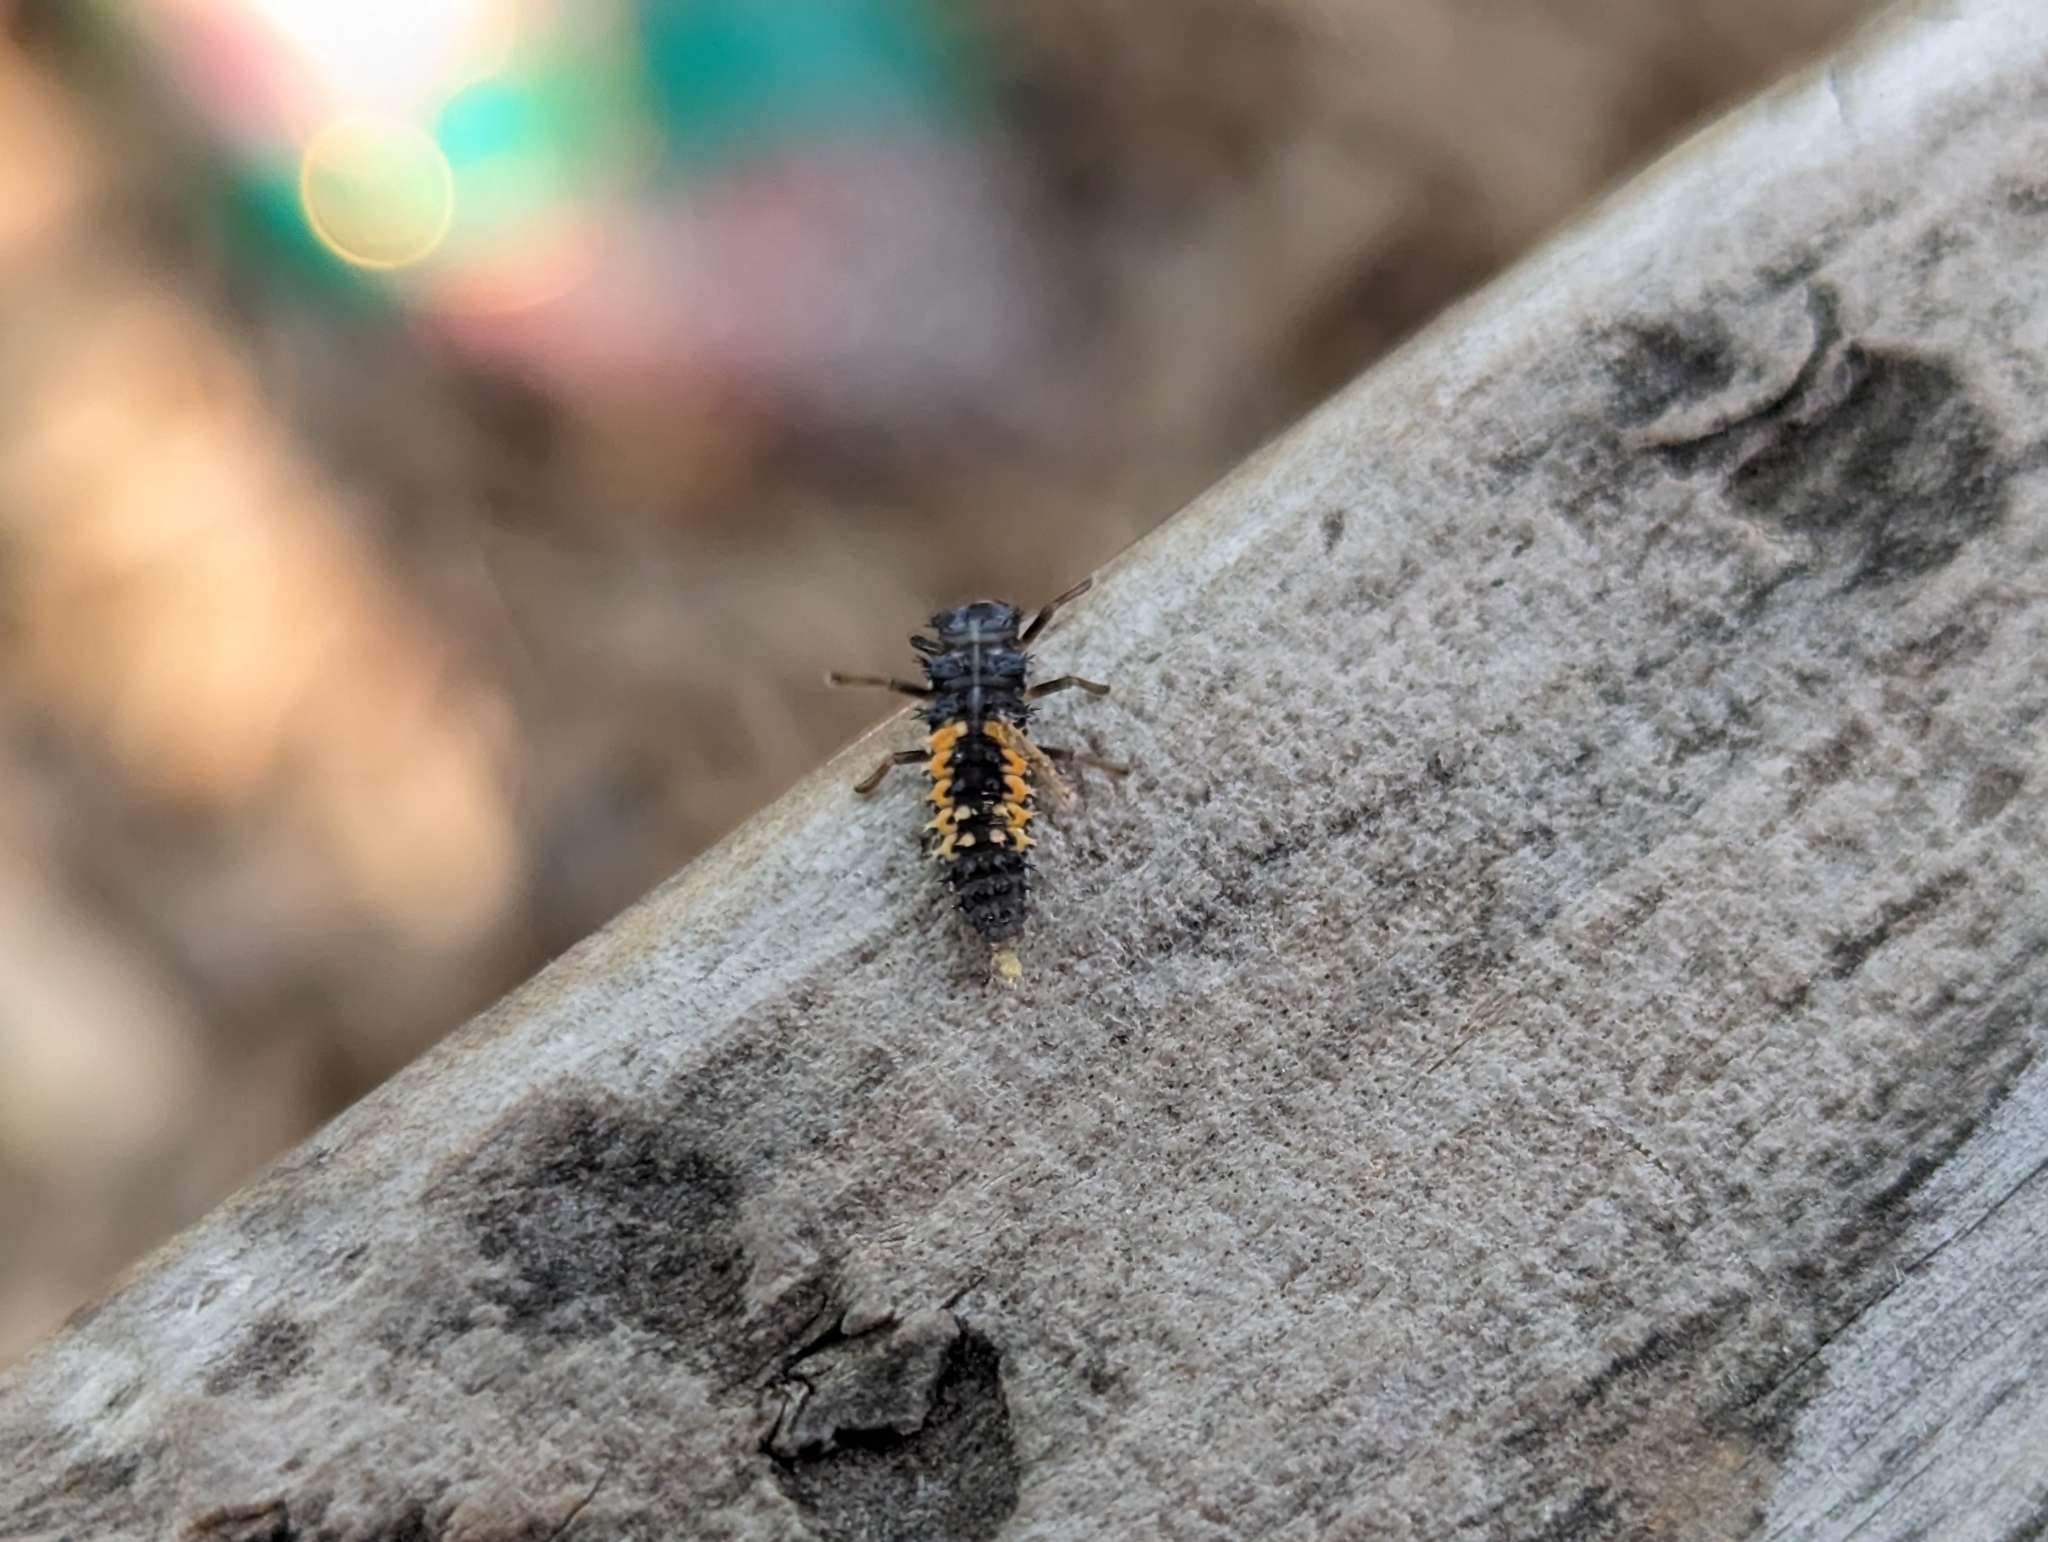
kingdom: Animalia
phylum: Arthropoda
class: Insecta
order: Coleoptera
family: Coccinellidae
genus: Harmonia
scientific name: Harmonia axyridis
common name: Harlequin ladybird
